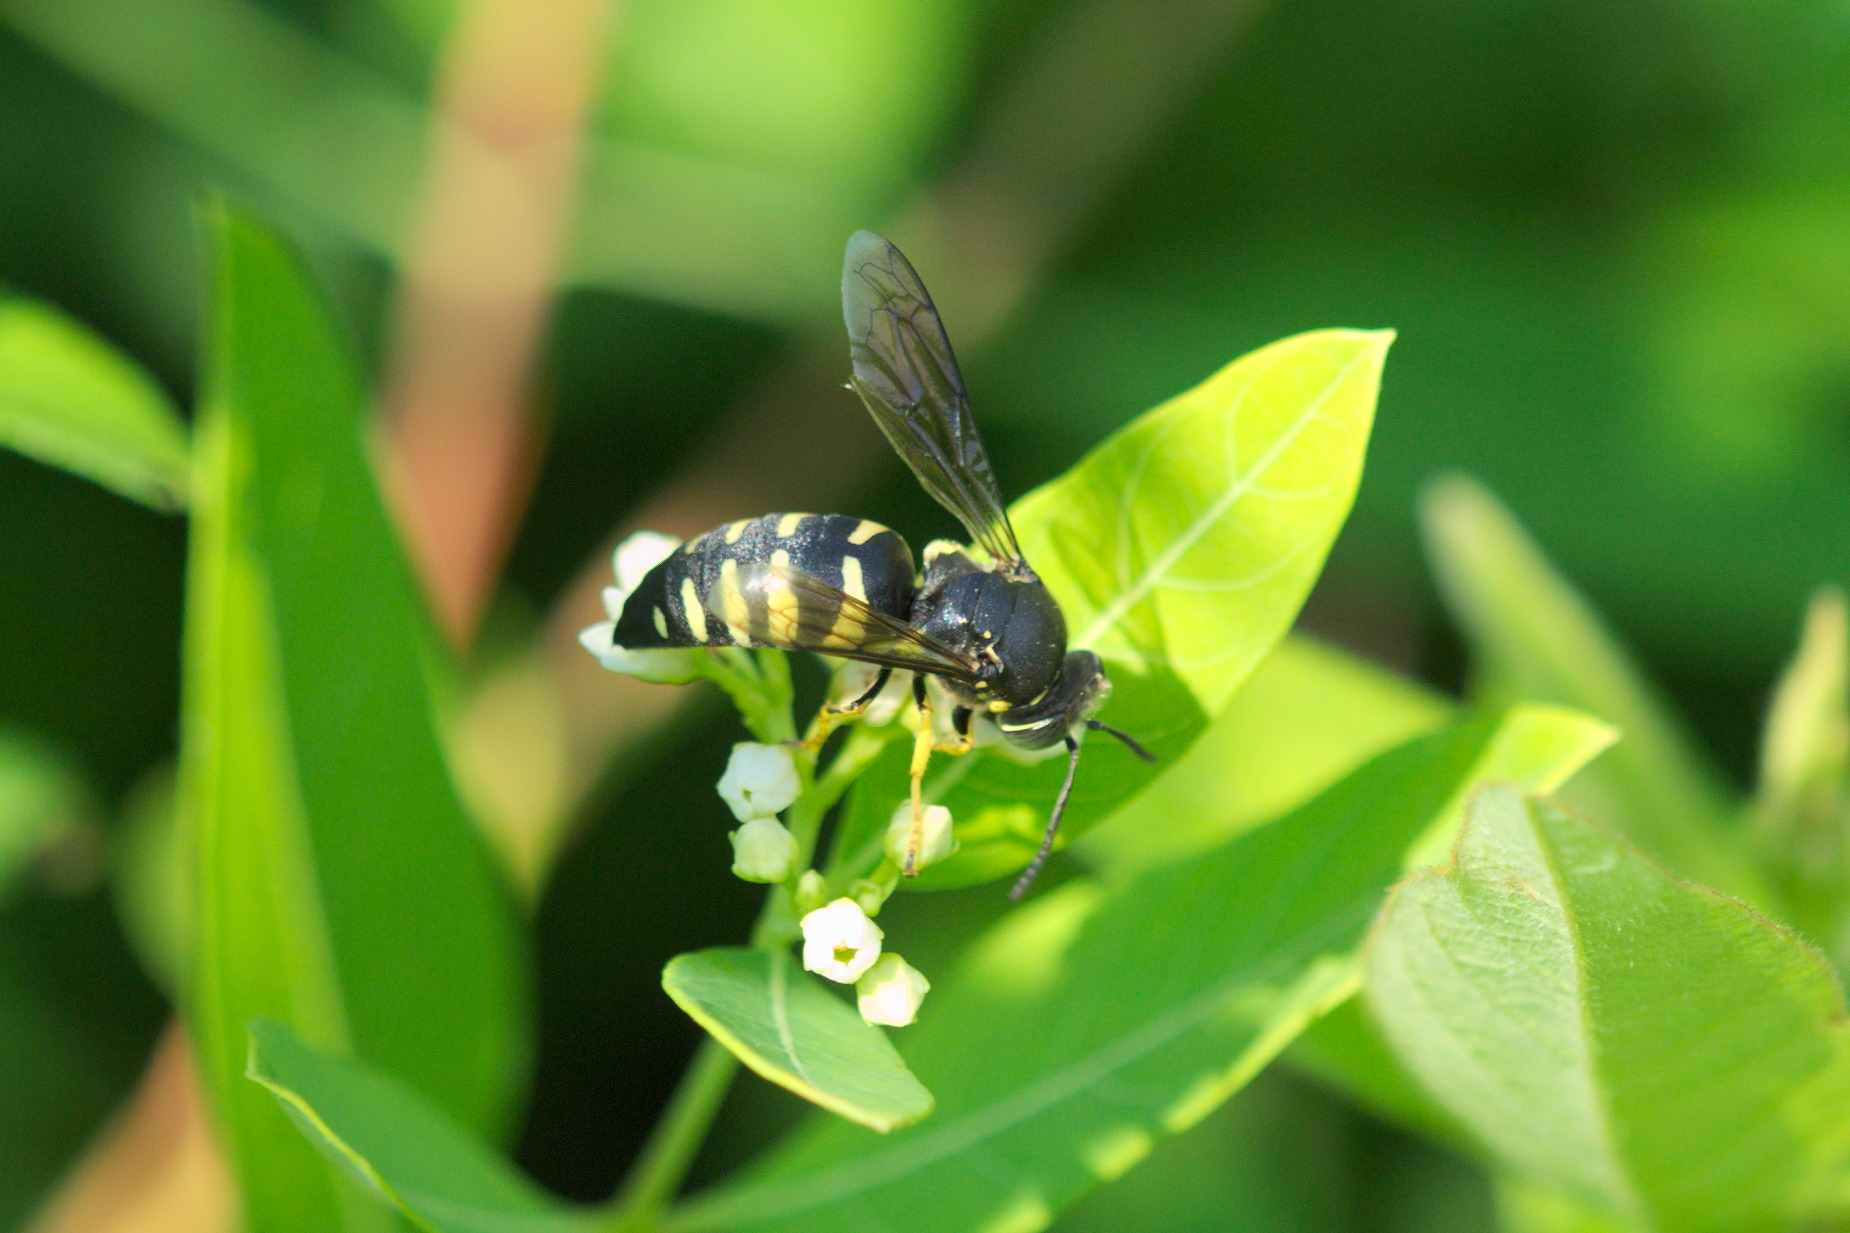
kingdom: Animalia
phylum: Arthropoda
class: Insecta
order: Hymenoptera
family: Crabronidae
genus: Bicyrtes
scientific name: Bicyrtes quadrifasciatus
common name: Four-banded stink bug hunter wasp
